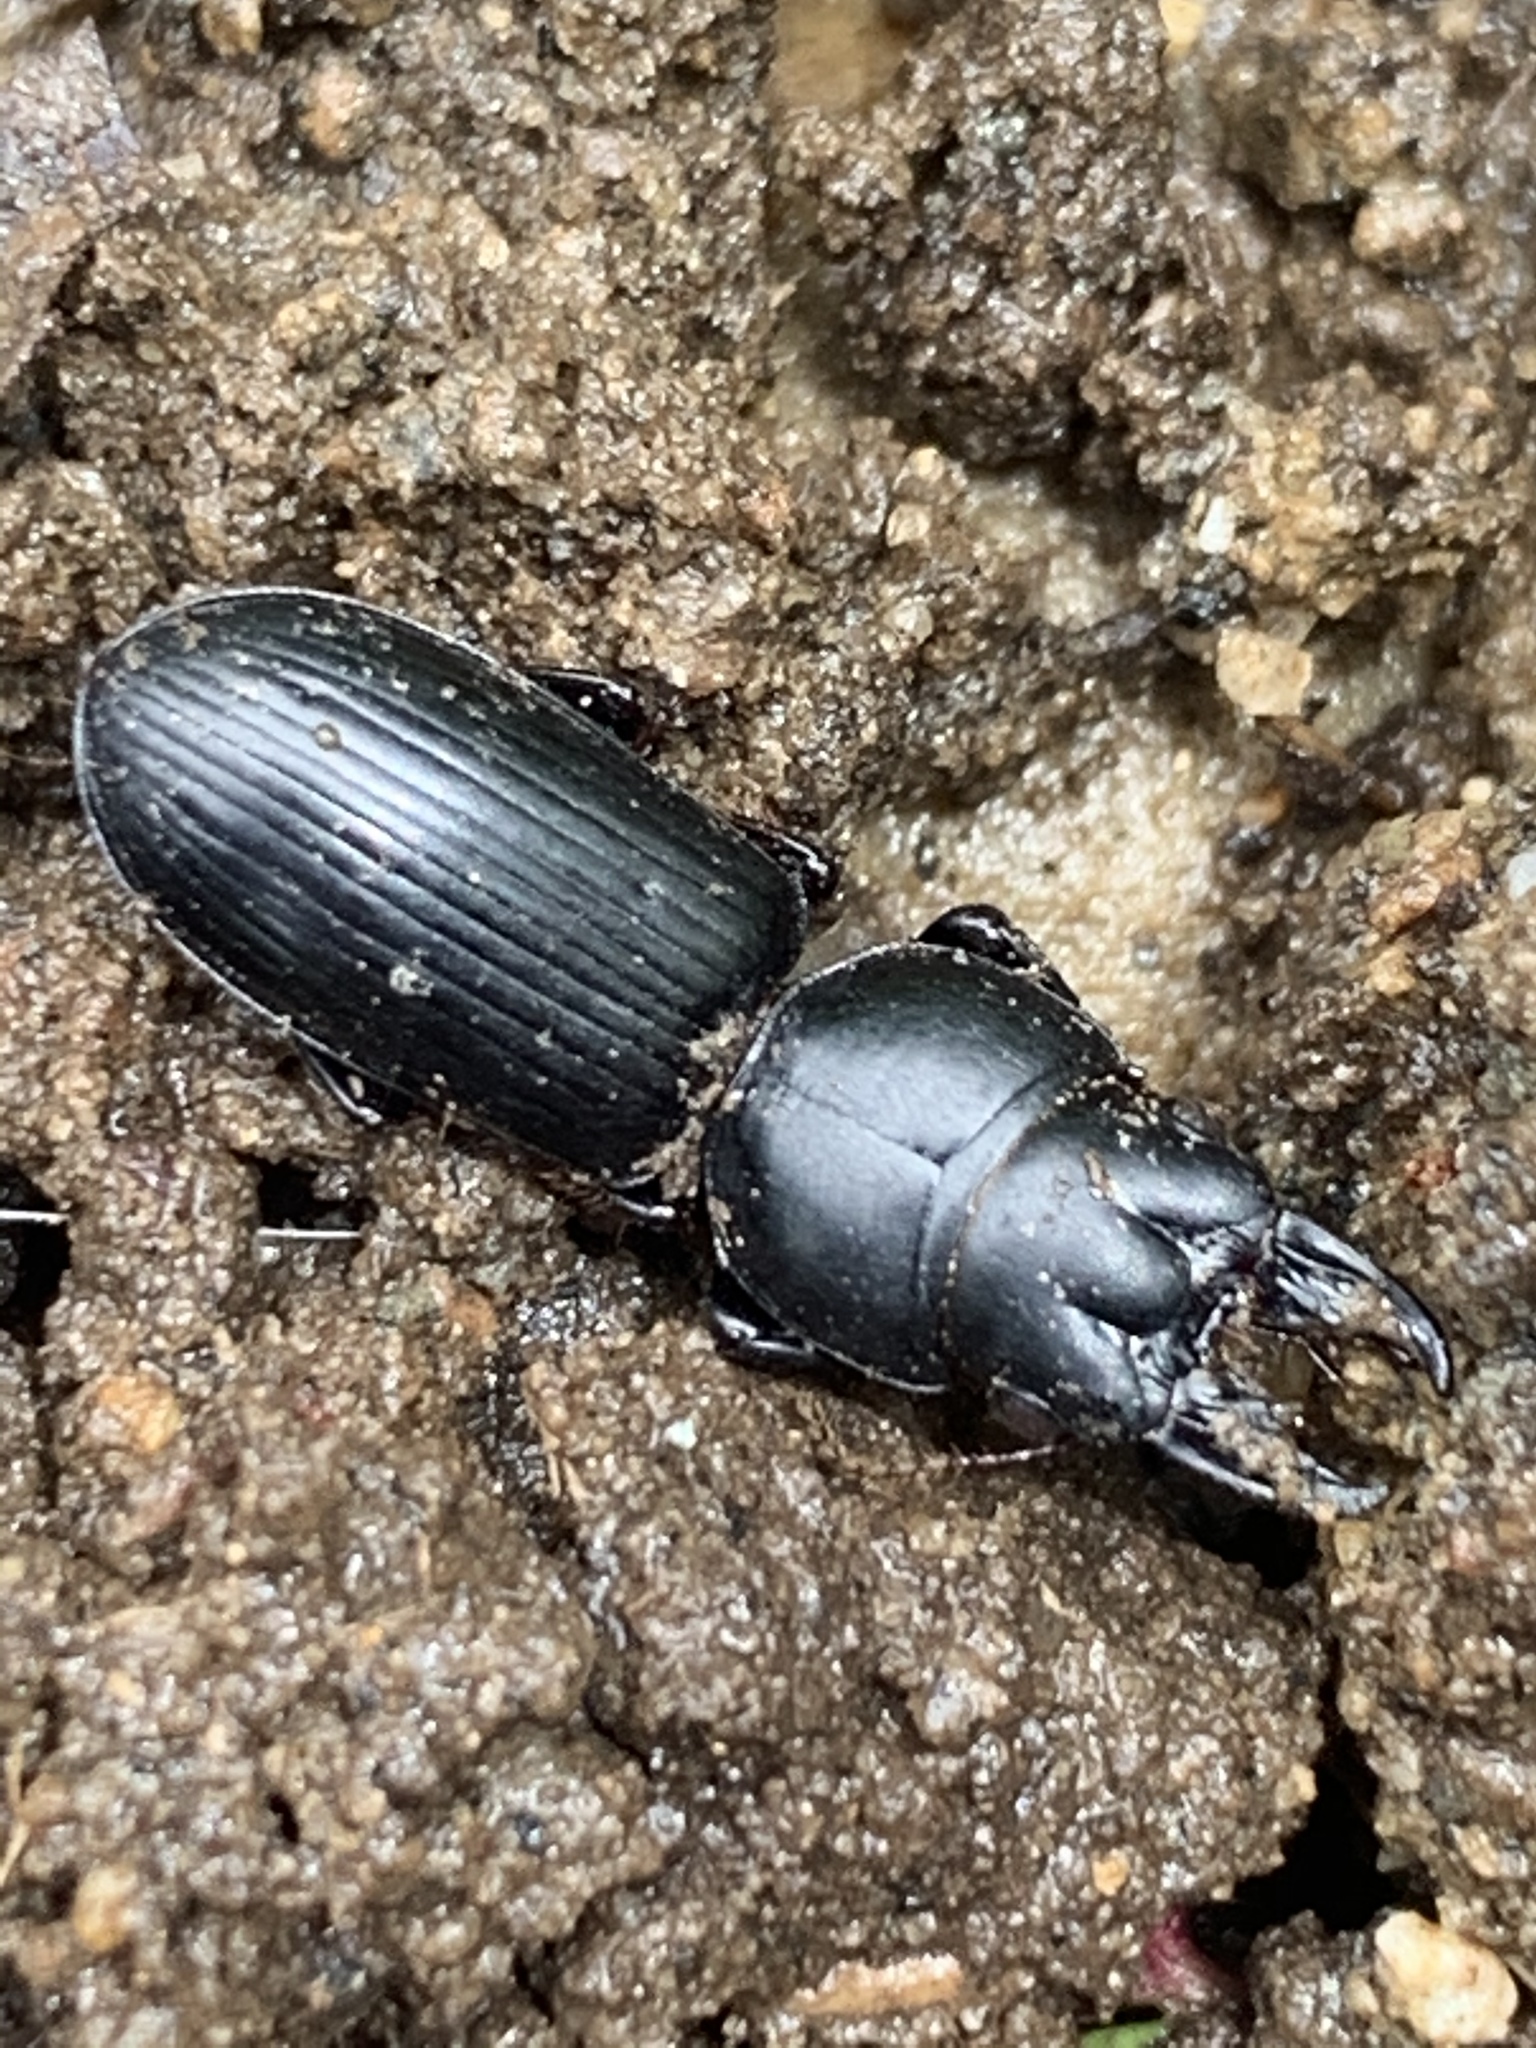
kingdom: Animalia
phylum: Arthropoda
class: Insecta
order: Coleoptera
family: Carabidae
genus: Scarites
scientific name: Scarites subterraneus
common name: Big-headed ground beetle
